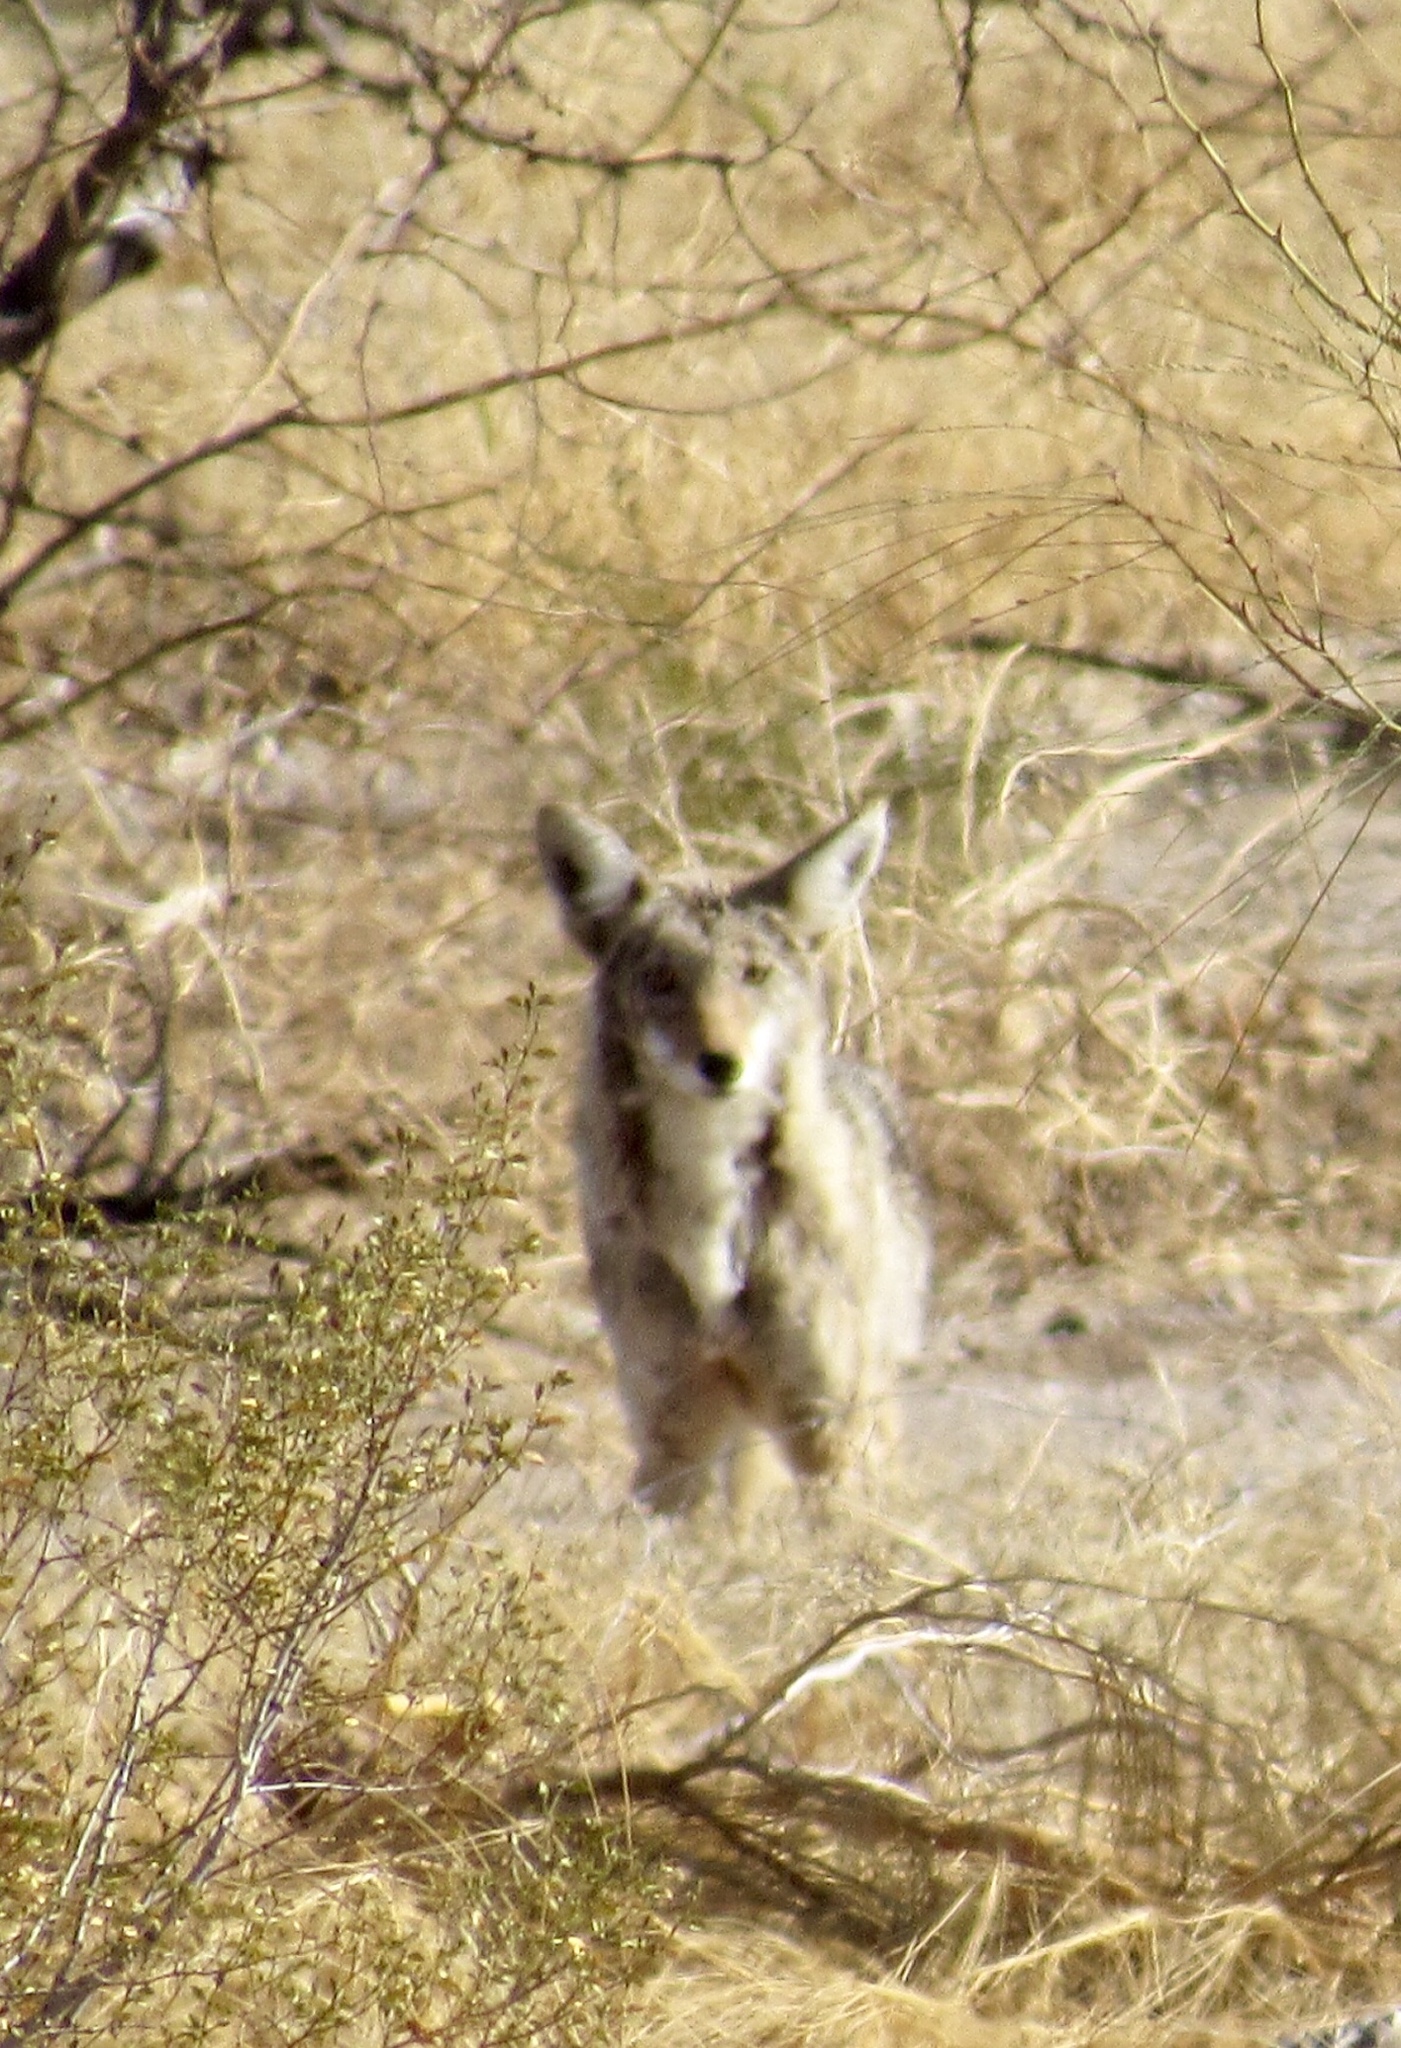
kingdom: Animalia
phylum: Chordata
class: Mammalia
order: Carnivora
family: Canidae
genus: Canis
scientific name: Canis latrans
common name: Coyote
